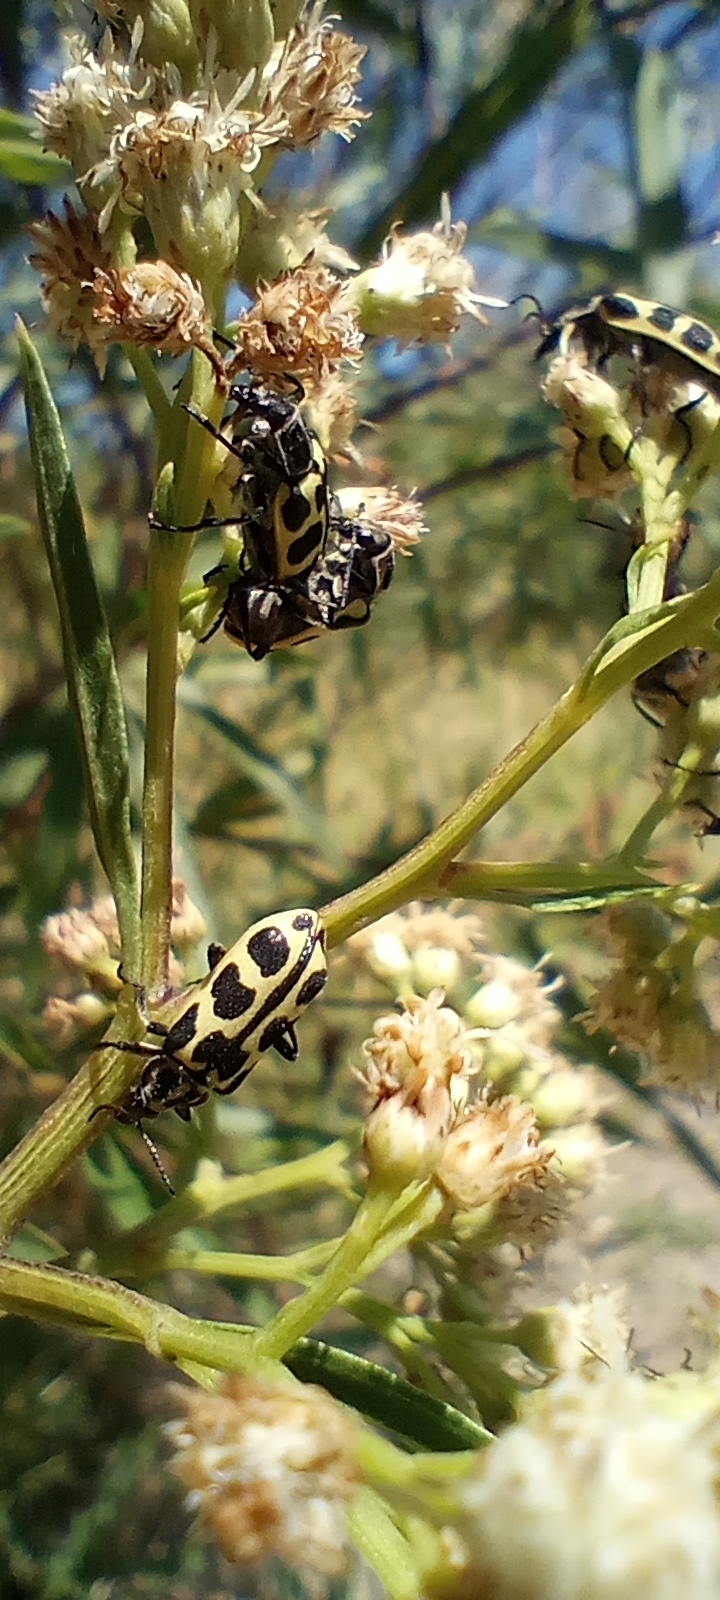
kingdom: Animalia
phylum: Arthropoda
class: Insecta
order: Coleoptera
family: Melyridae
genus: Astylus
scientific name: Astylus atromaculatus
